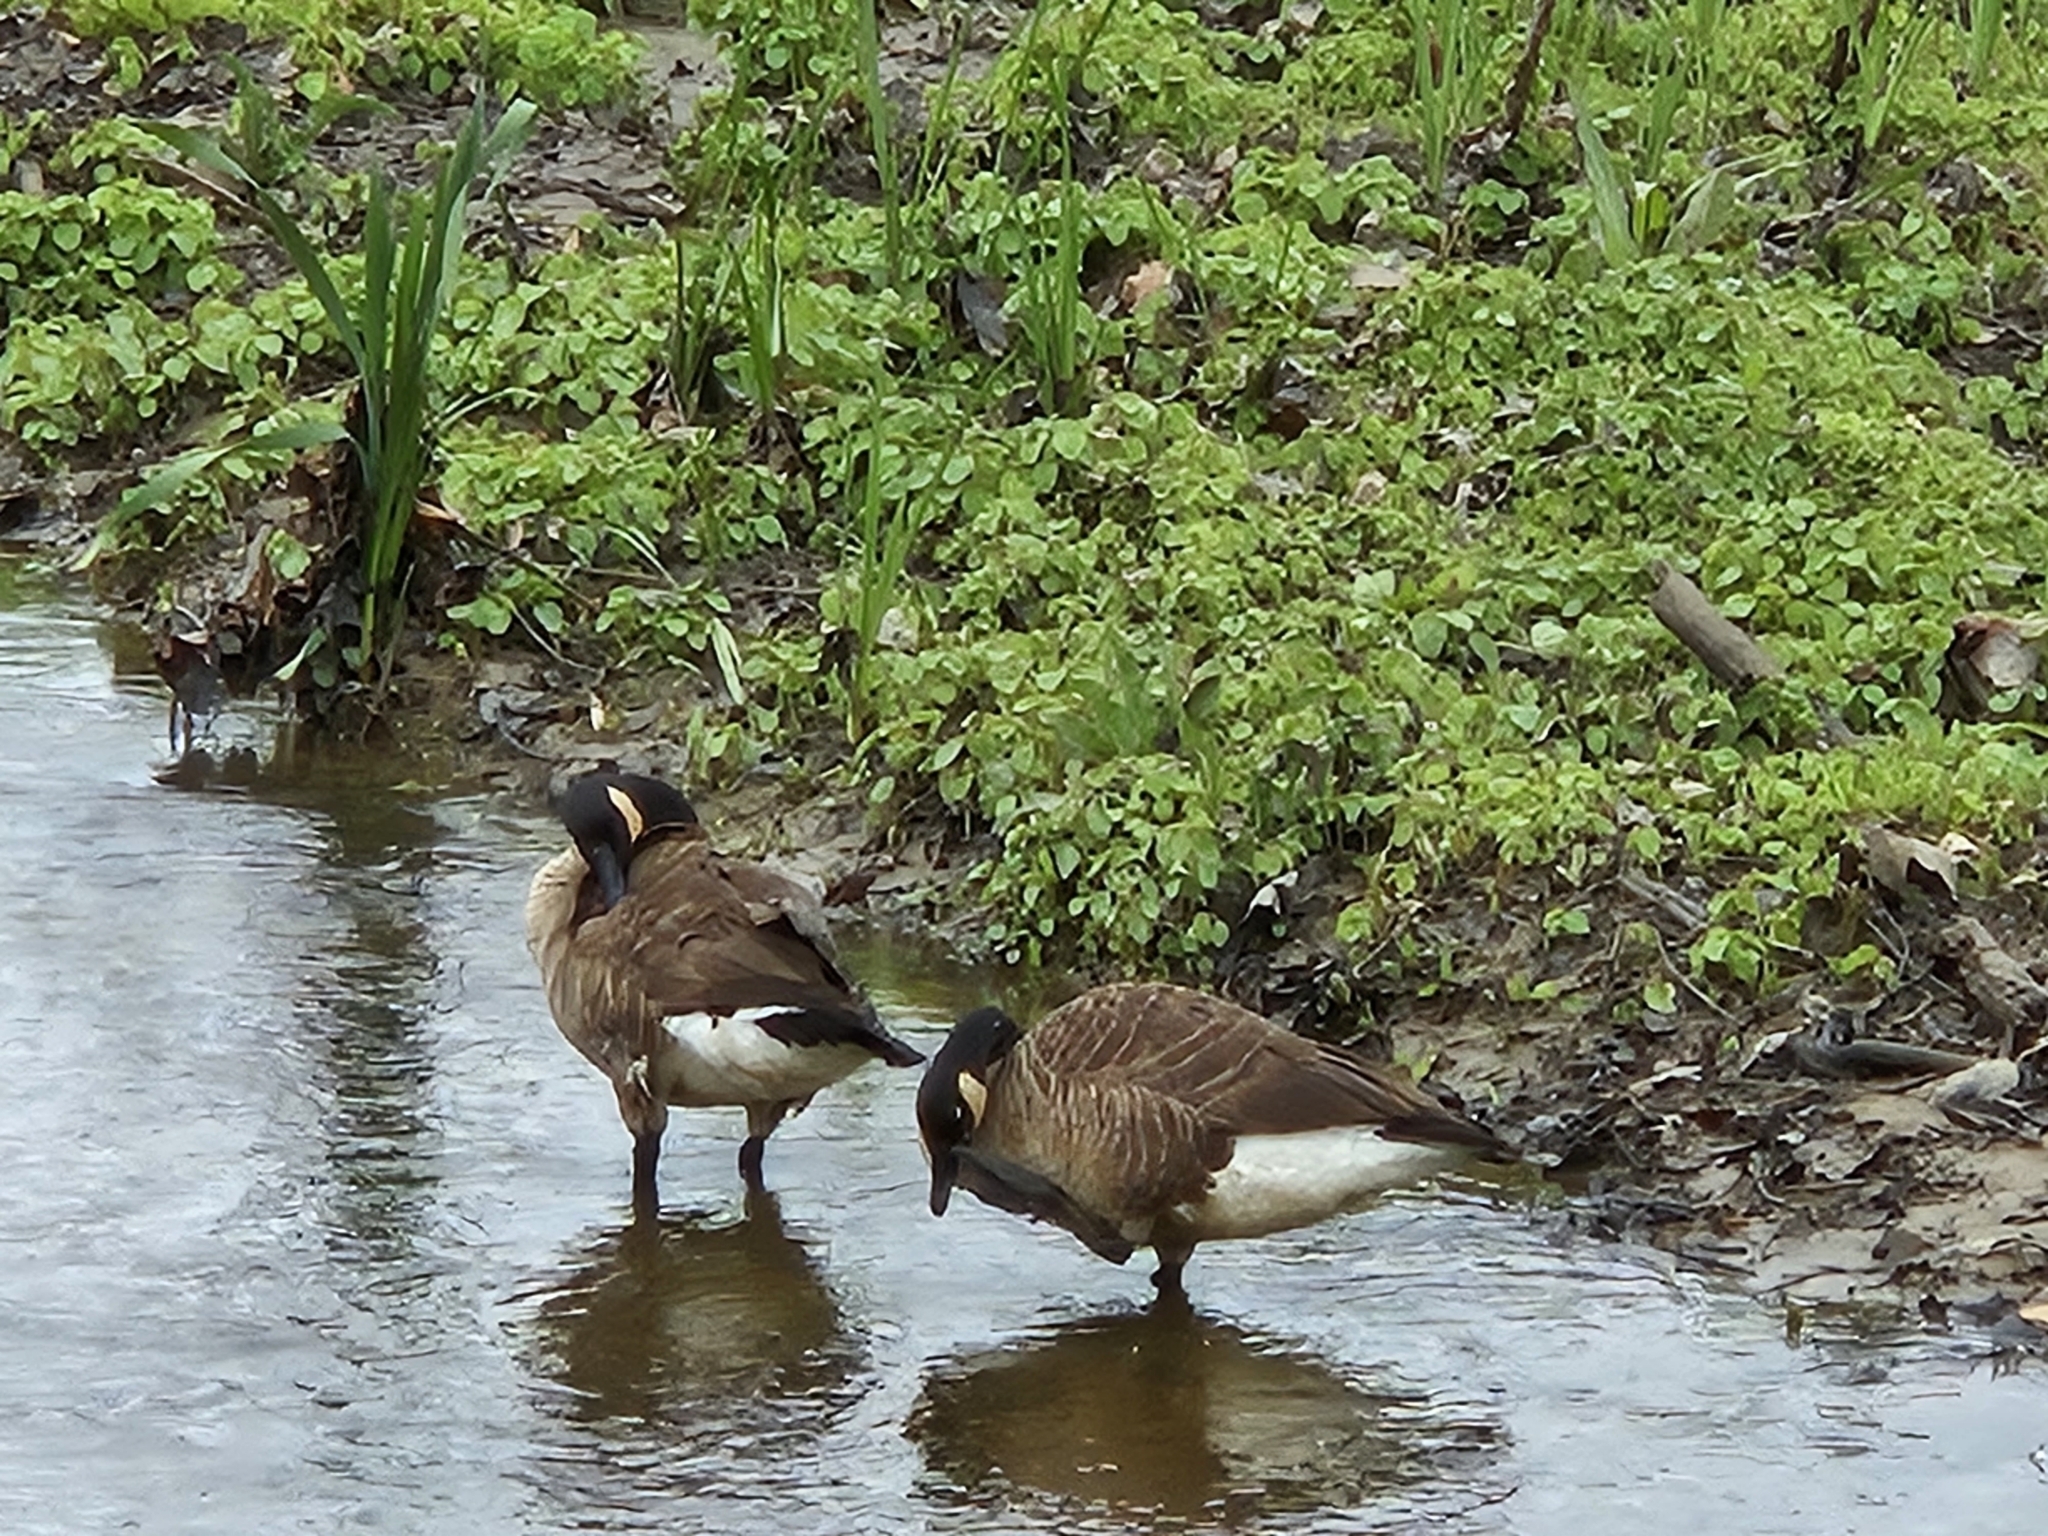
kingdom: Animalia
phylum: Chordata
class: Aves
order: Anseriformes
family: Anatidae
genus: Branta
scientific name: Branta canadensis
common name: Canada goose
